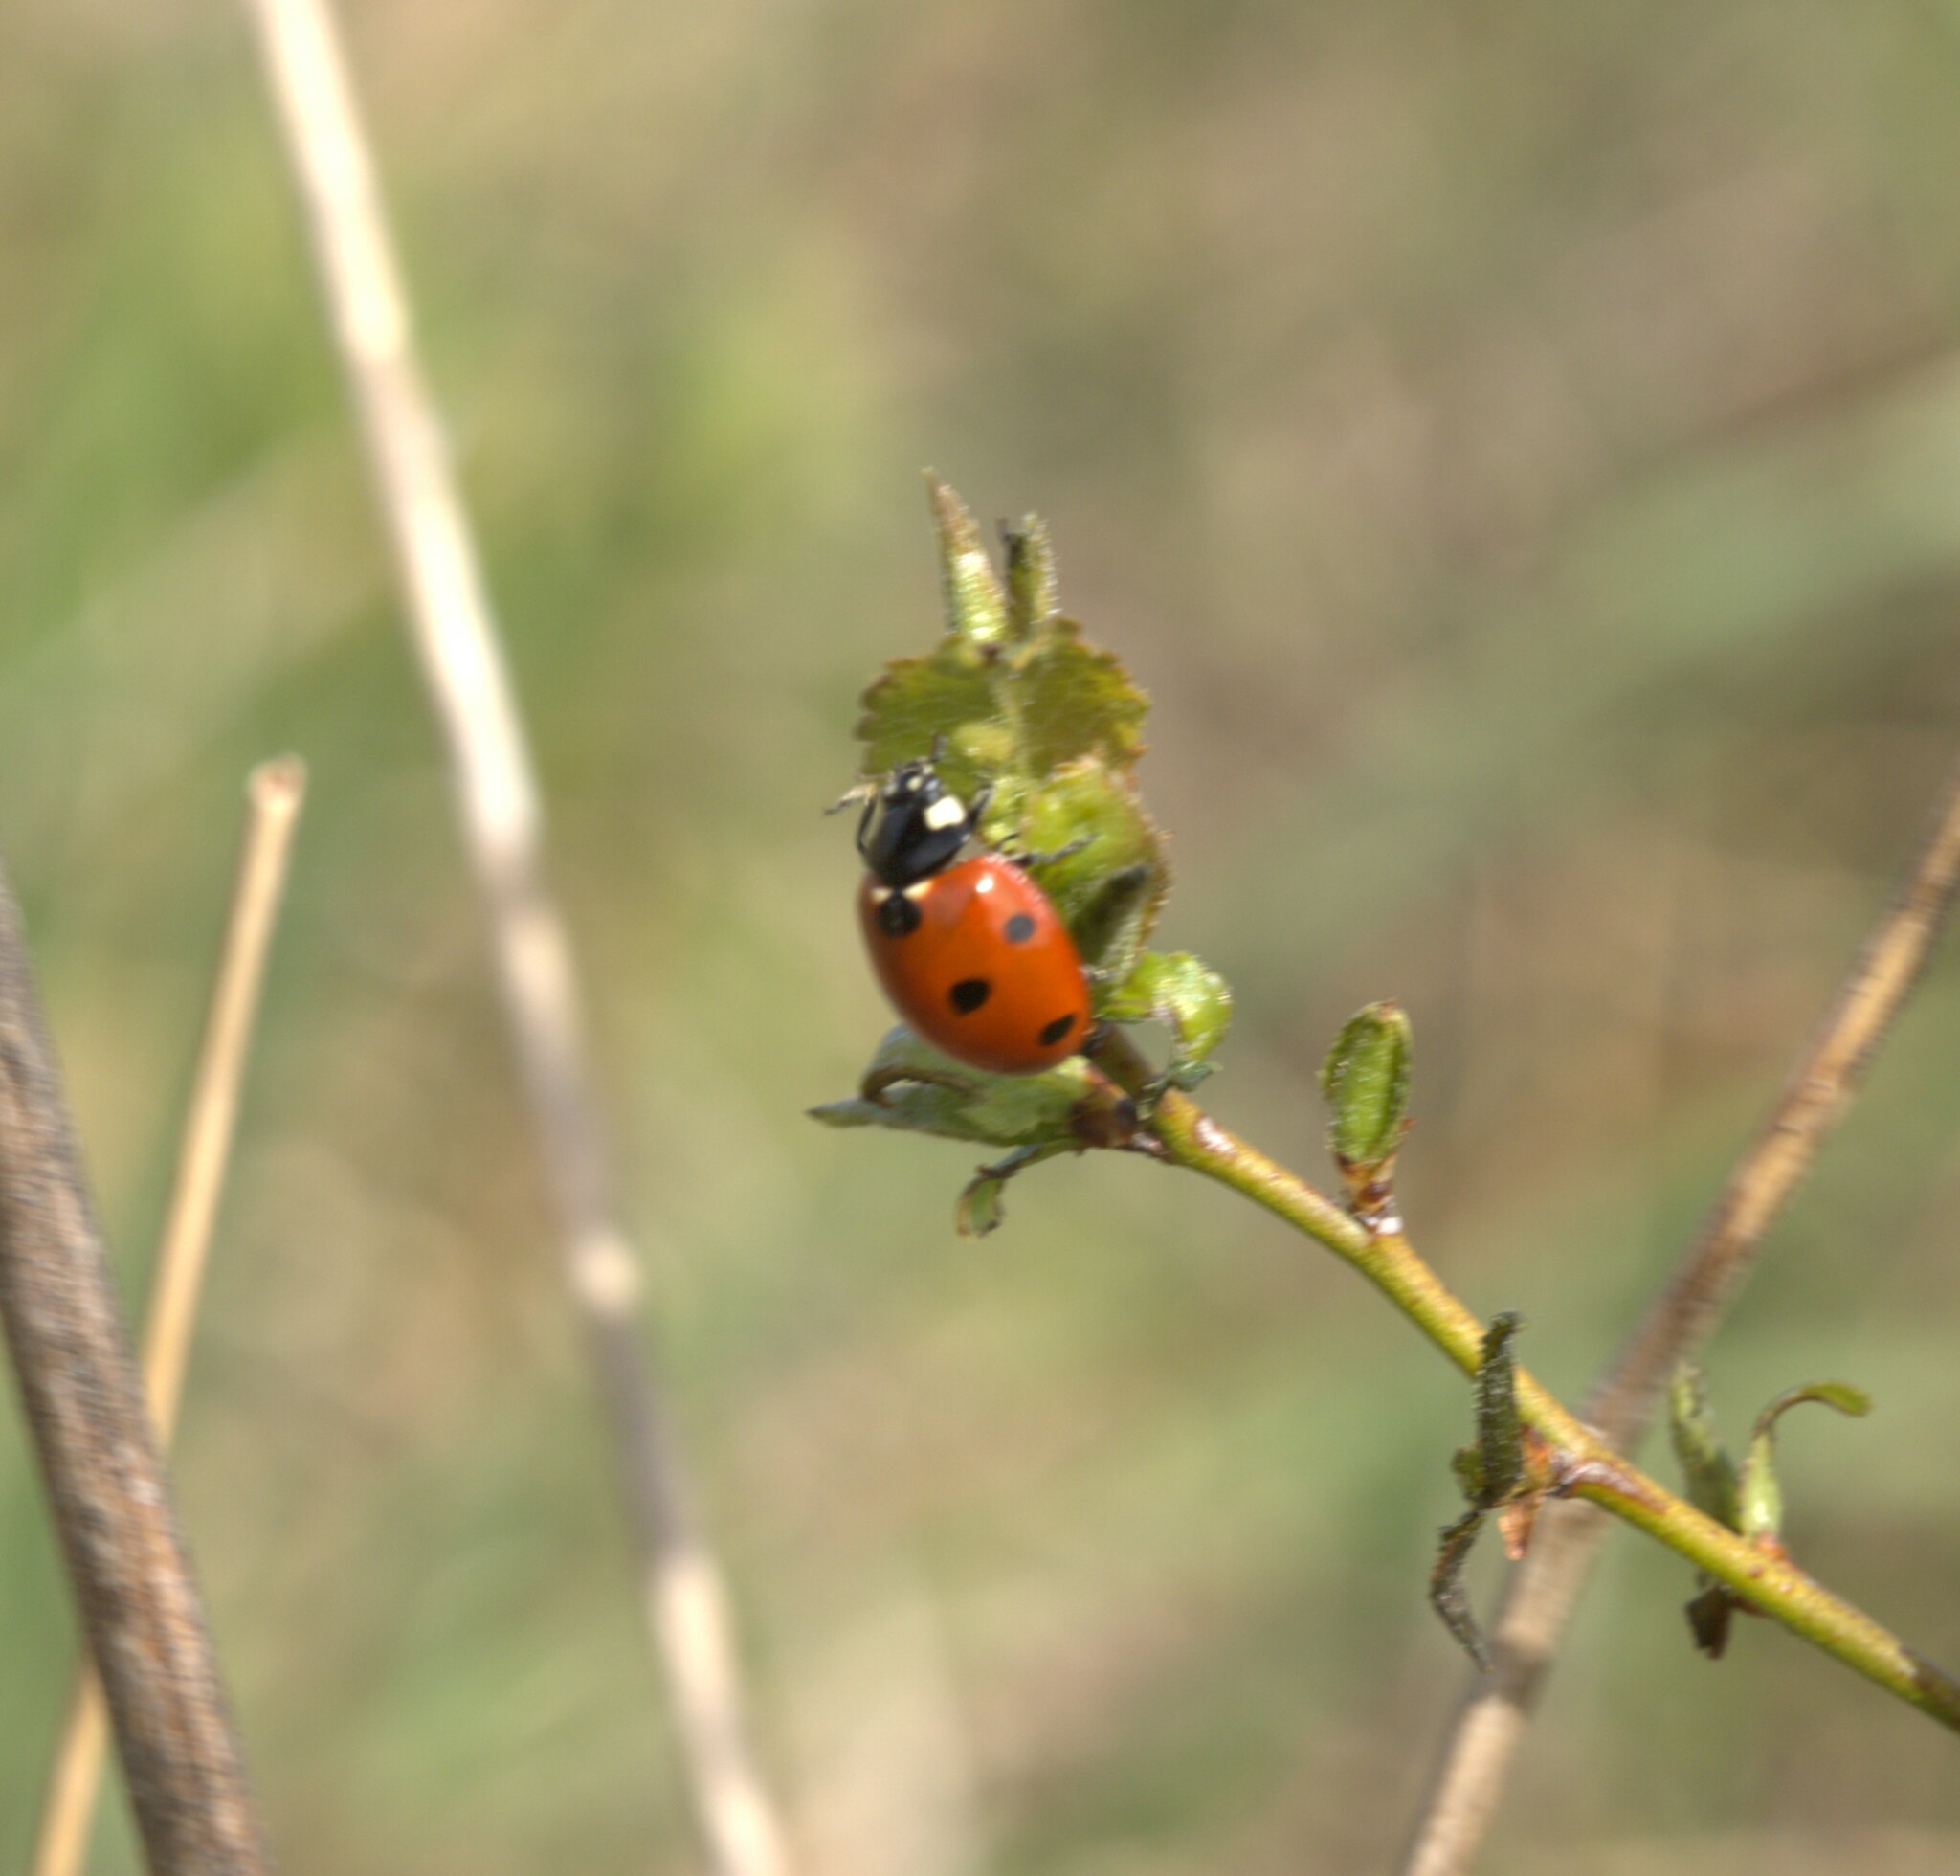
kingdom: Animalia
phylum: Arthropoda
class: Insecta
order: Coleoptera
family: Coccinellidae
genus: Coccinella
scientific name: Coccinella septempunctata
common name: Sevenspotted lady beetle
